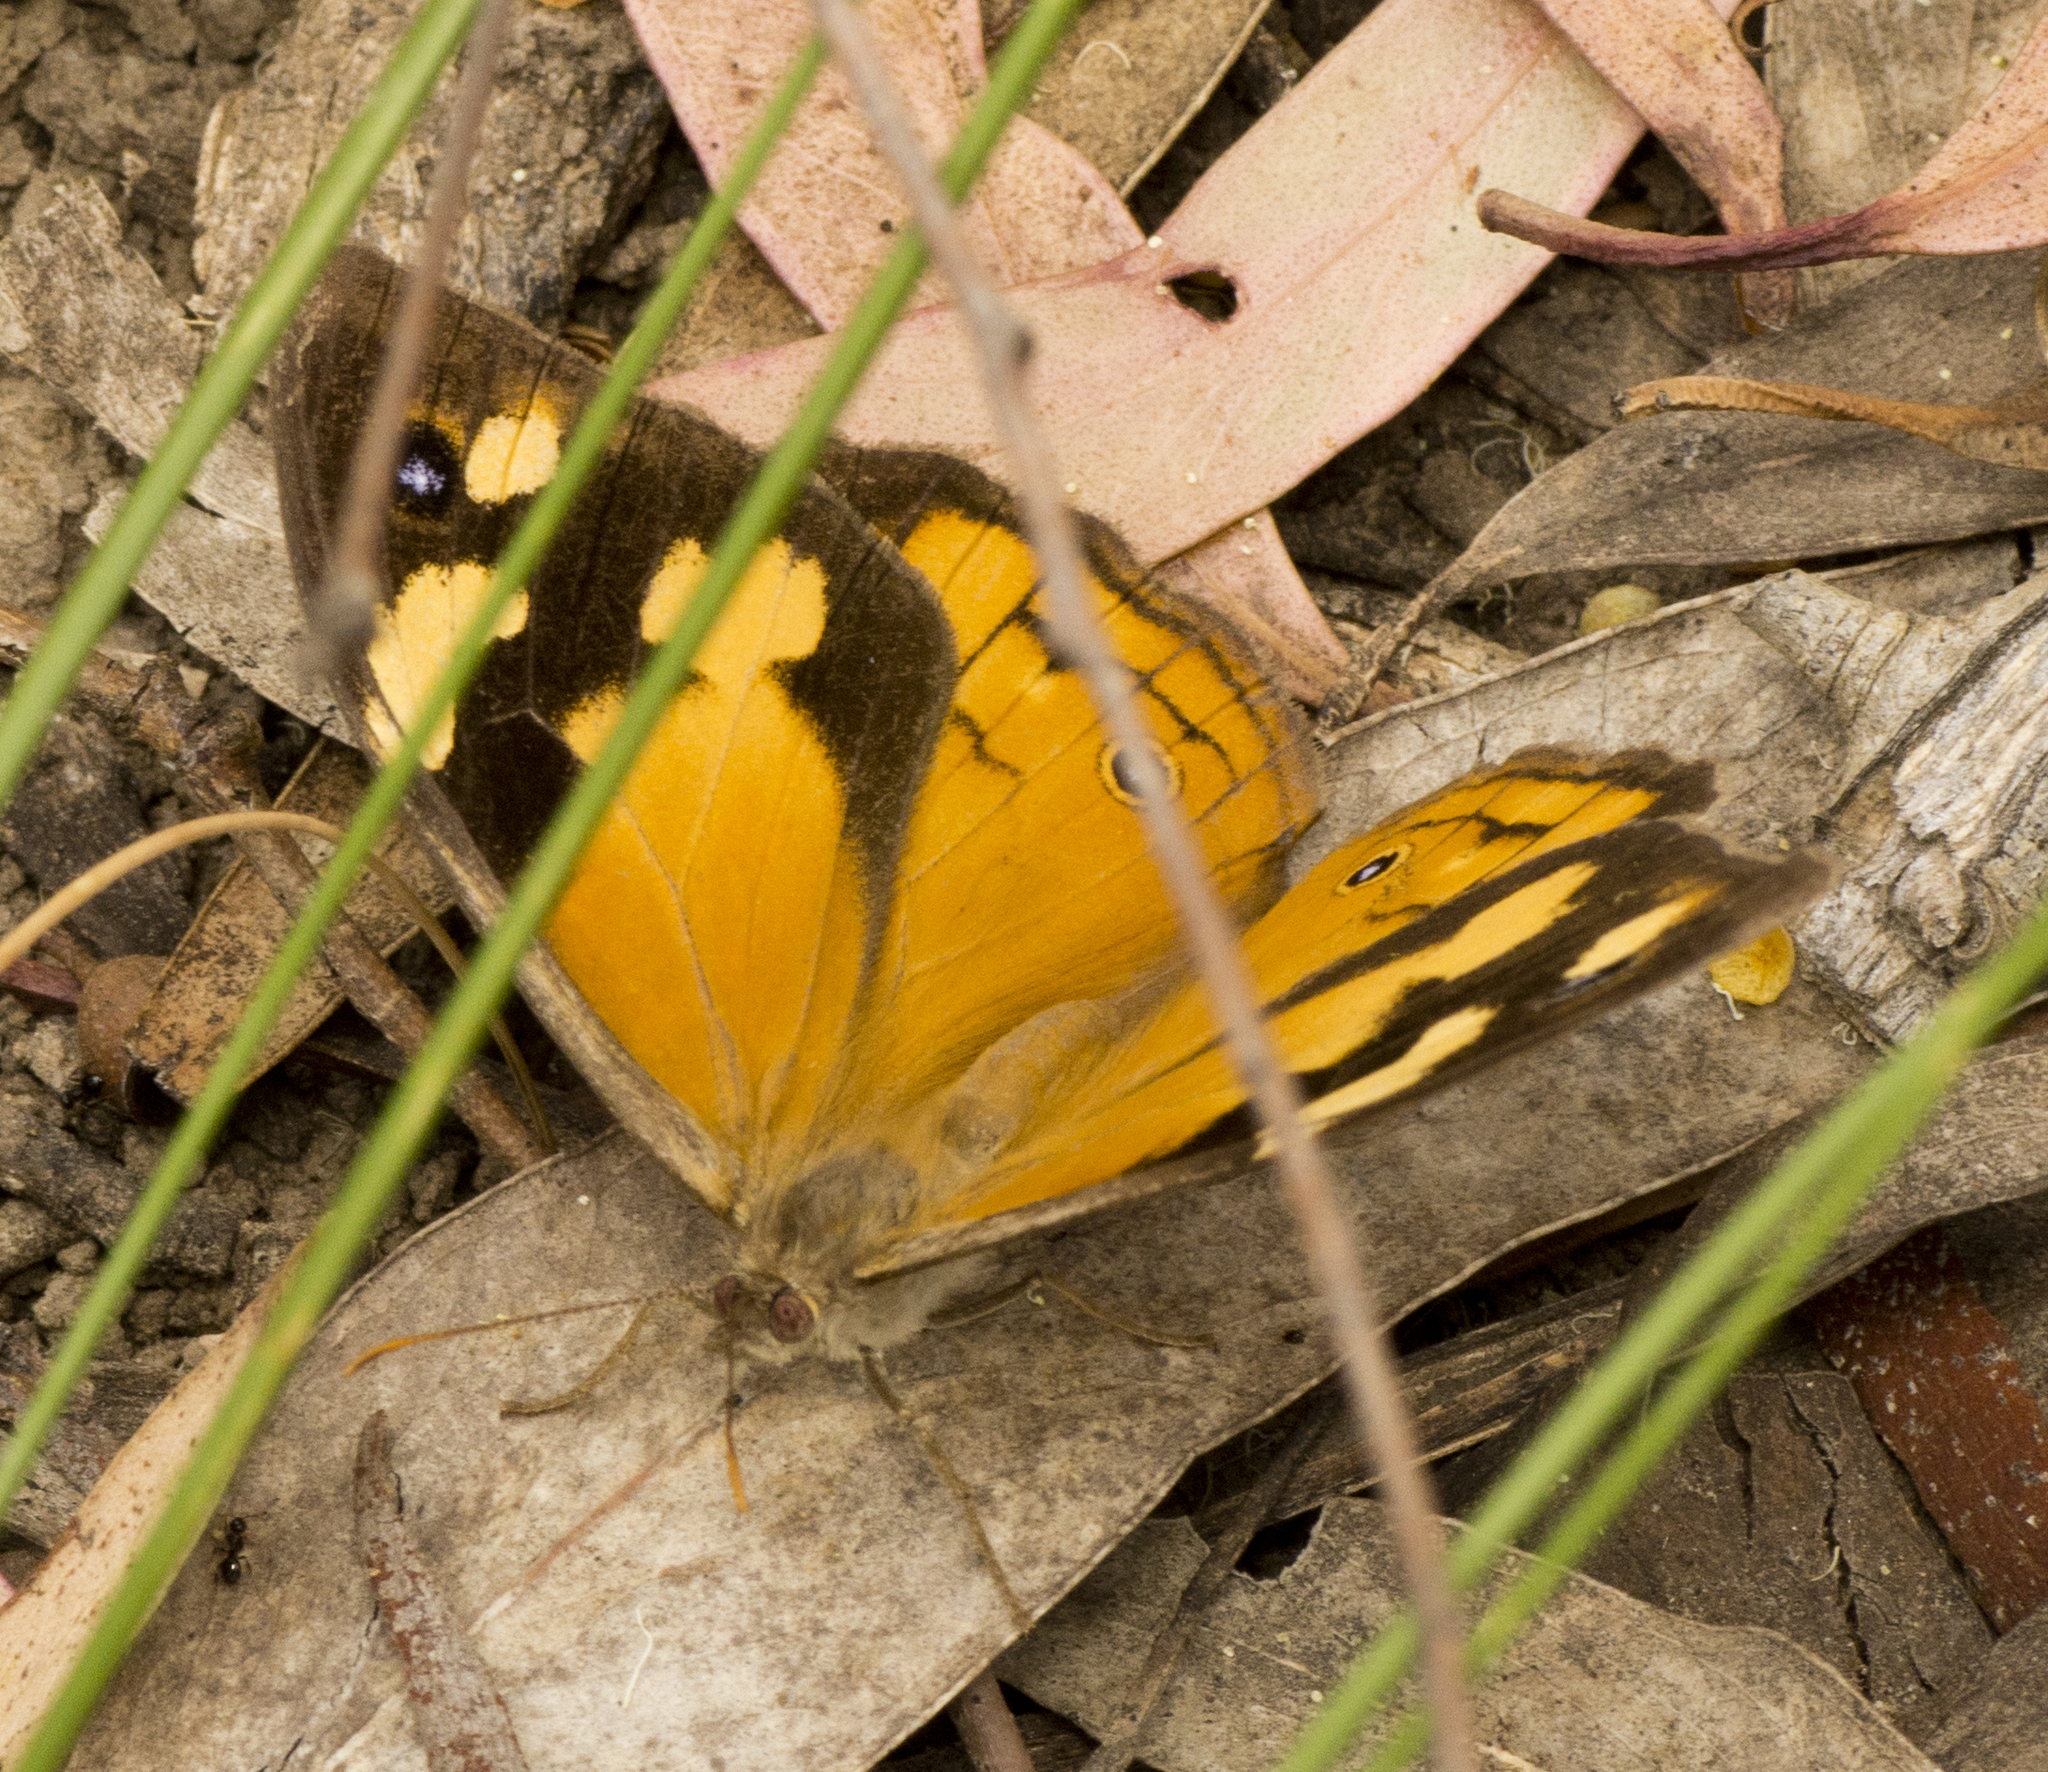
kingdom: Animalia
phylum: Arthropoda
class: Insecta
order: Lepidoptera
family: Nymphalidae
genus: Heteronympha
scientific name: Heteronympha merope
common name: Common brown
